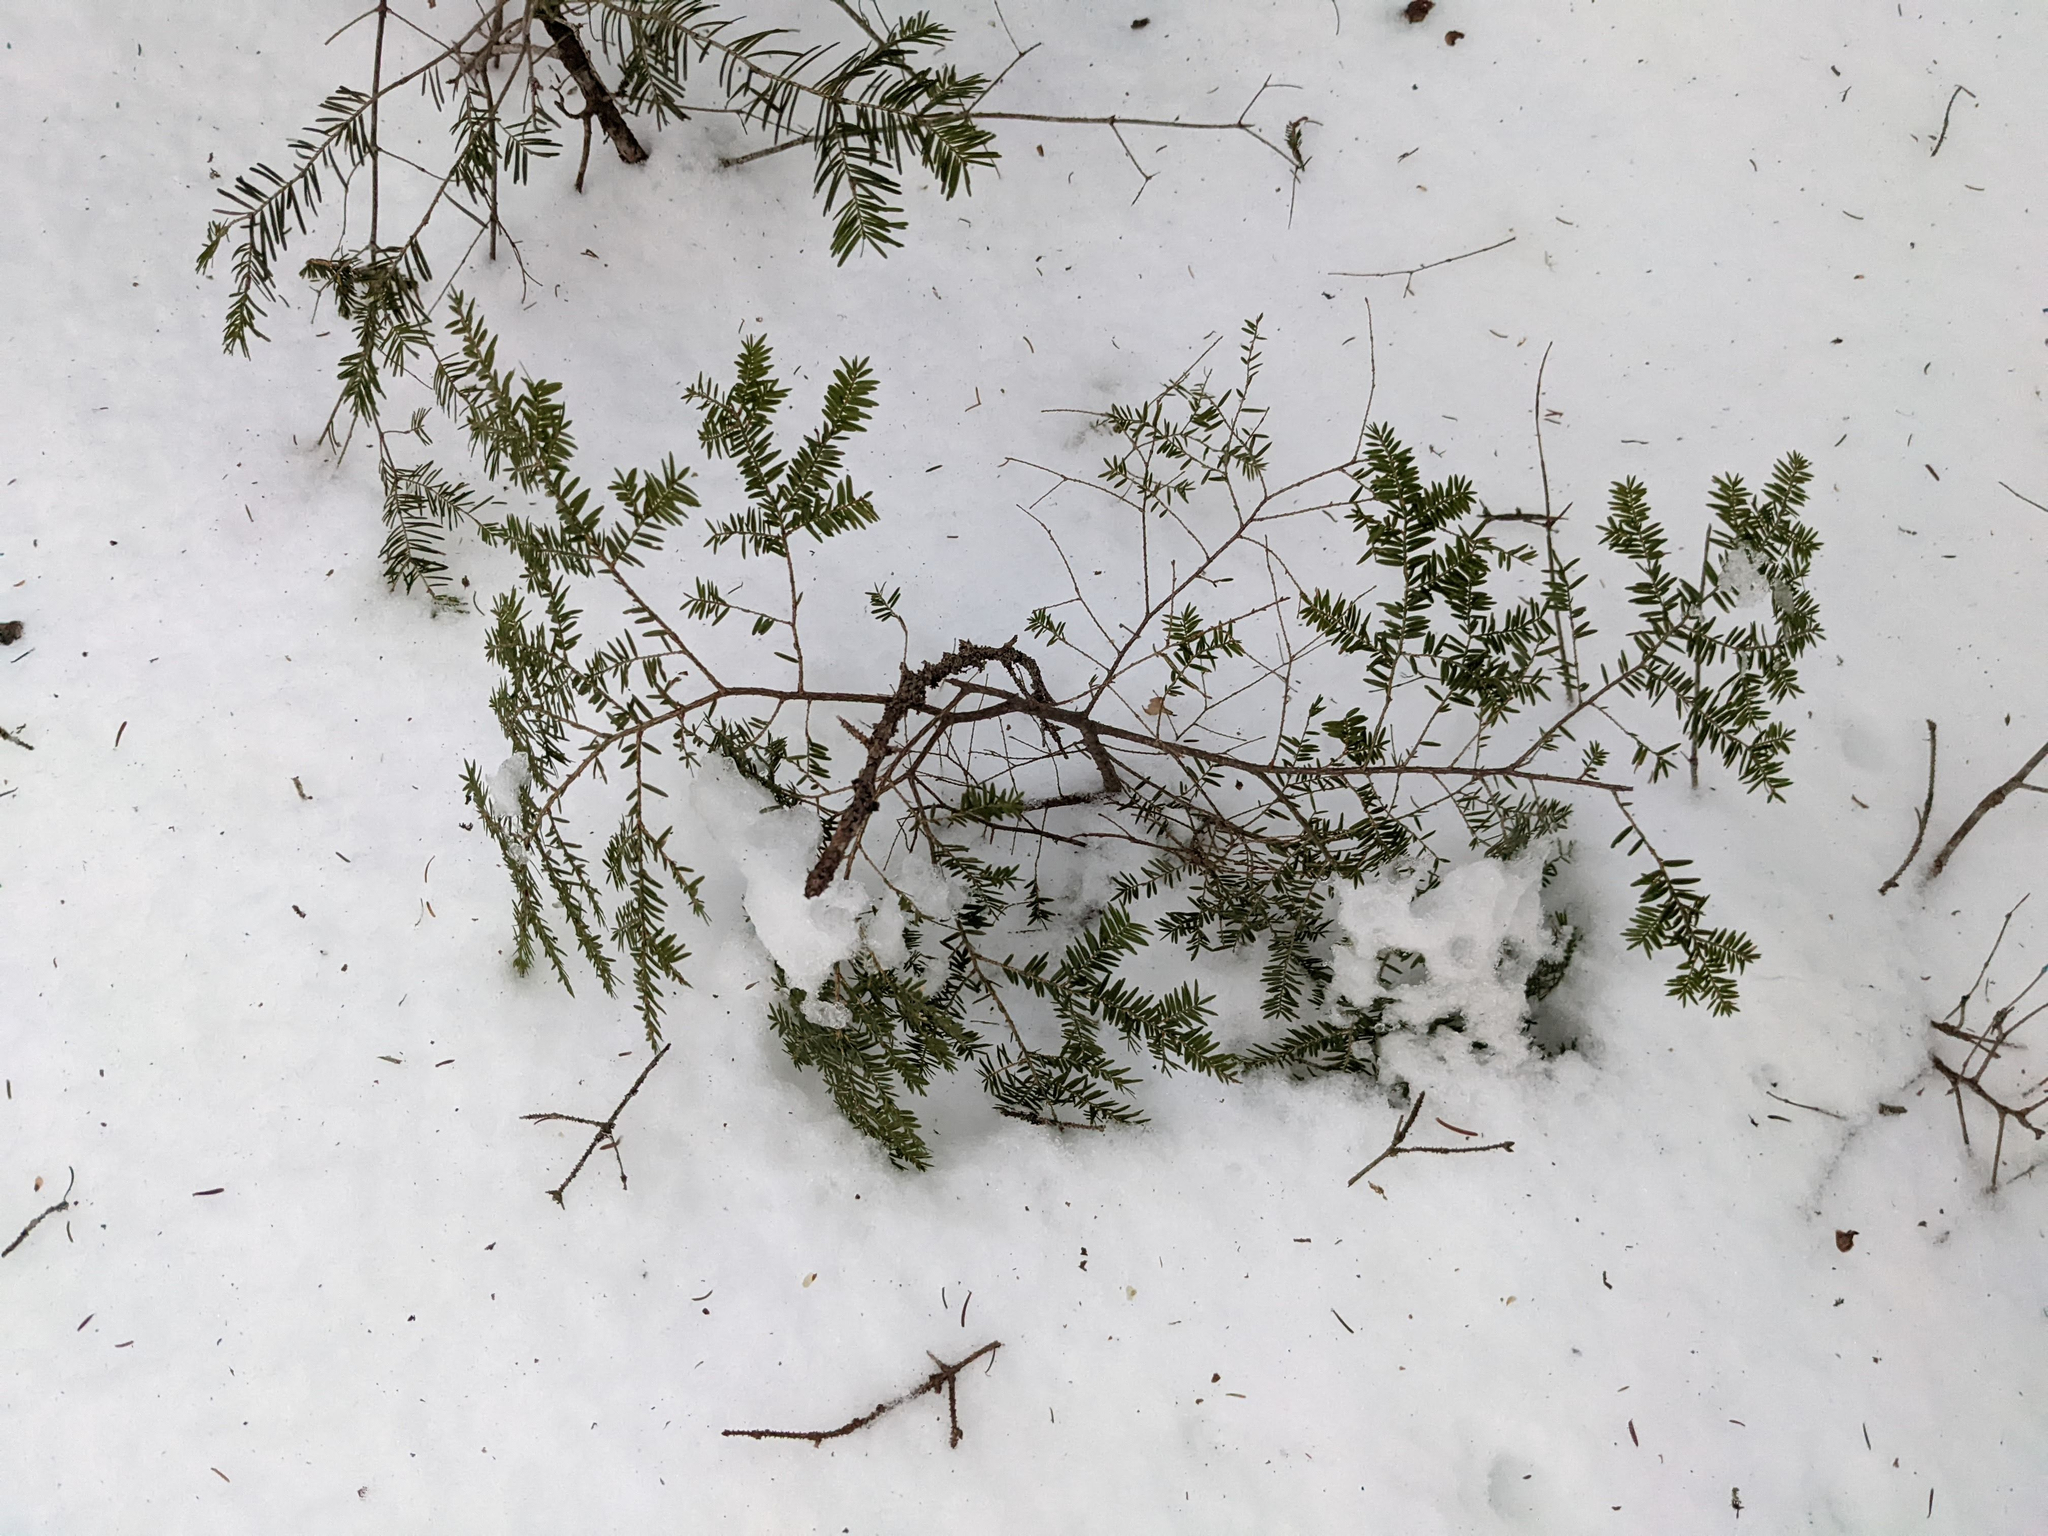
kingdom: Plantae
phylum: Tracheophyta
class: Pinopsida
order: Pinales
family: Pinaceae
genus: Tsuga
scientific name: Tsuga canadensis
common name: Eastern hemlock
